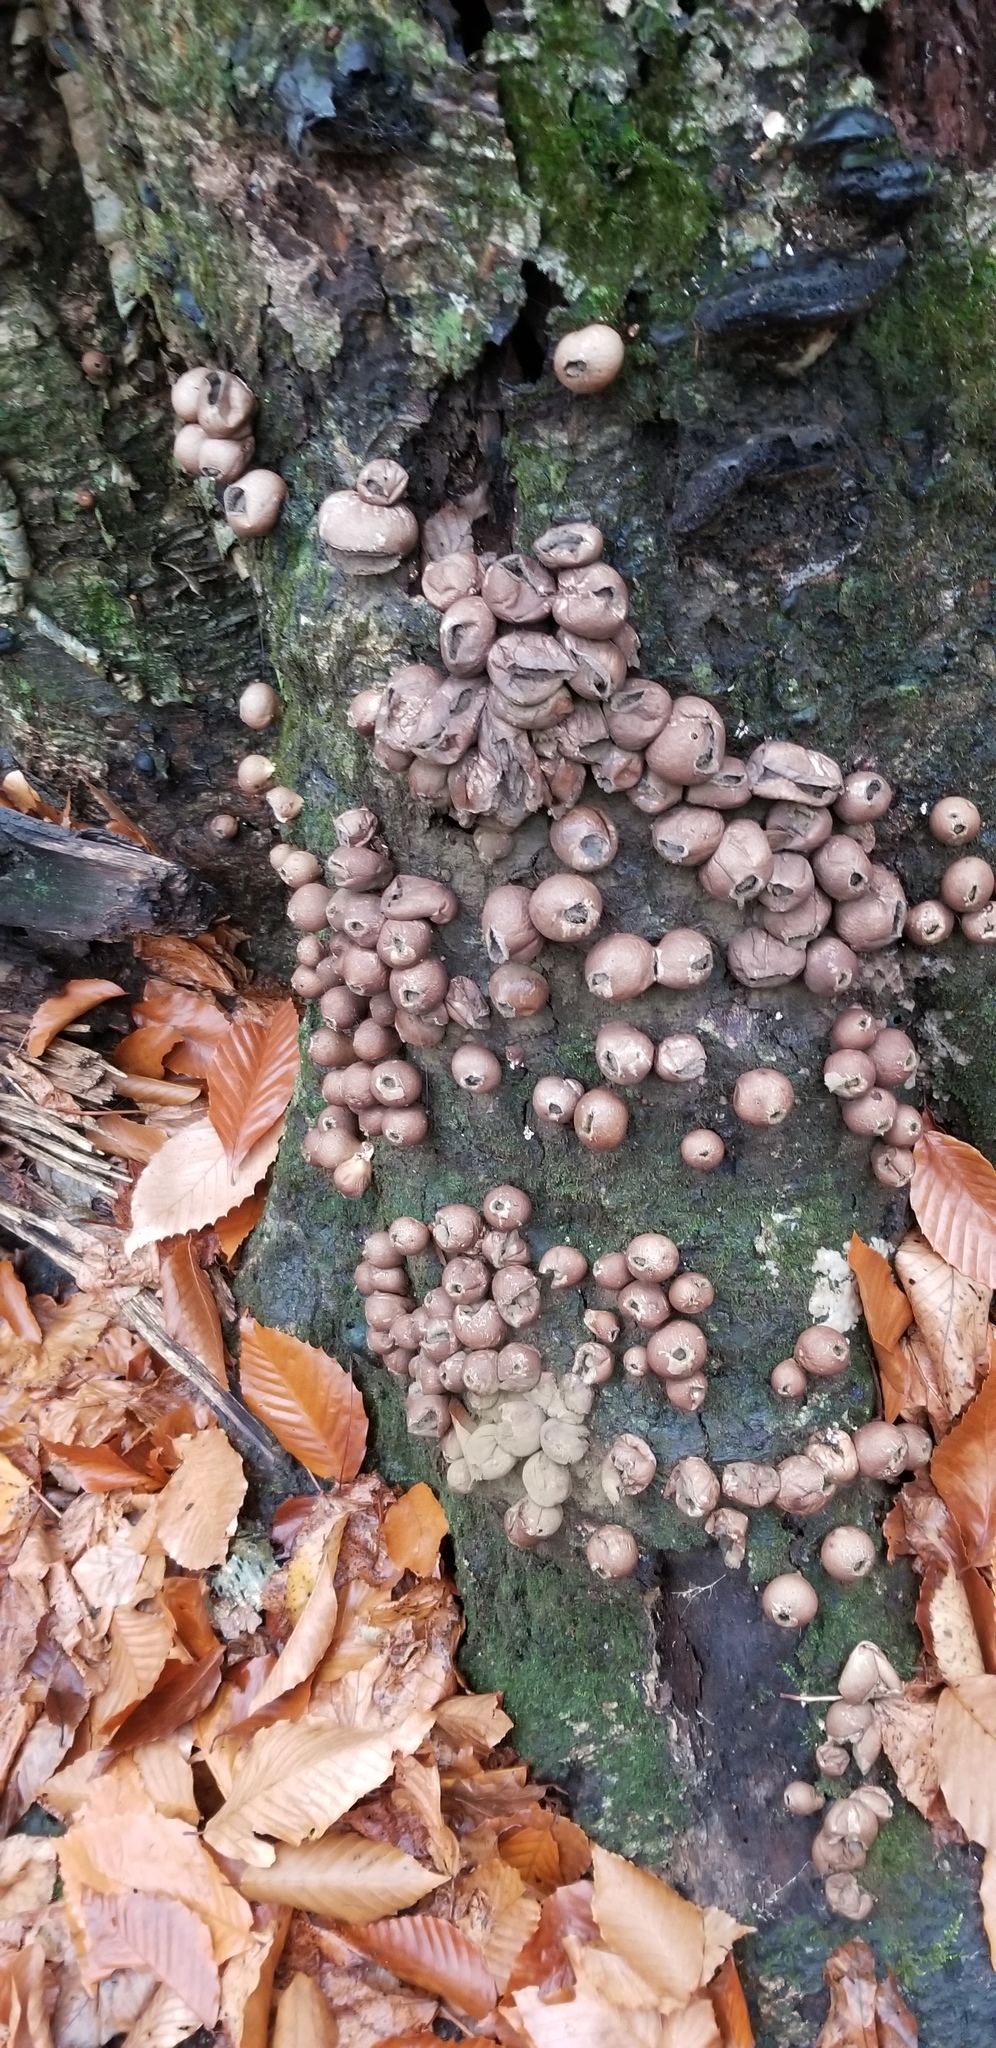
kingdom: Fungi
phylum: Basidiomycota
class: Agaricomycetes
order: Agaricales
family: Lycoperdaceae
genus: Apioperdon
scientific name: Apioperdon pyriforme
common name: Pear-shaped puffball
